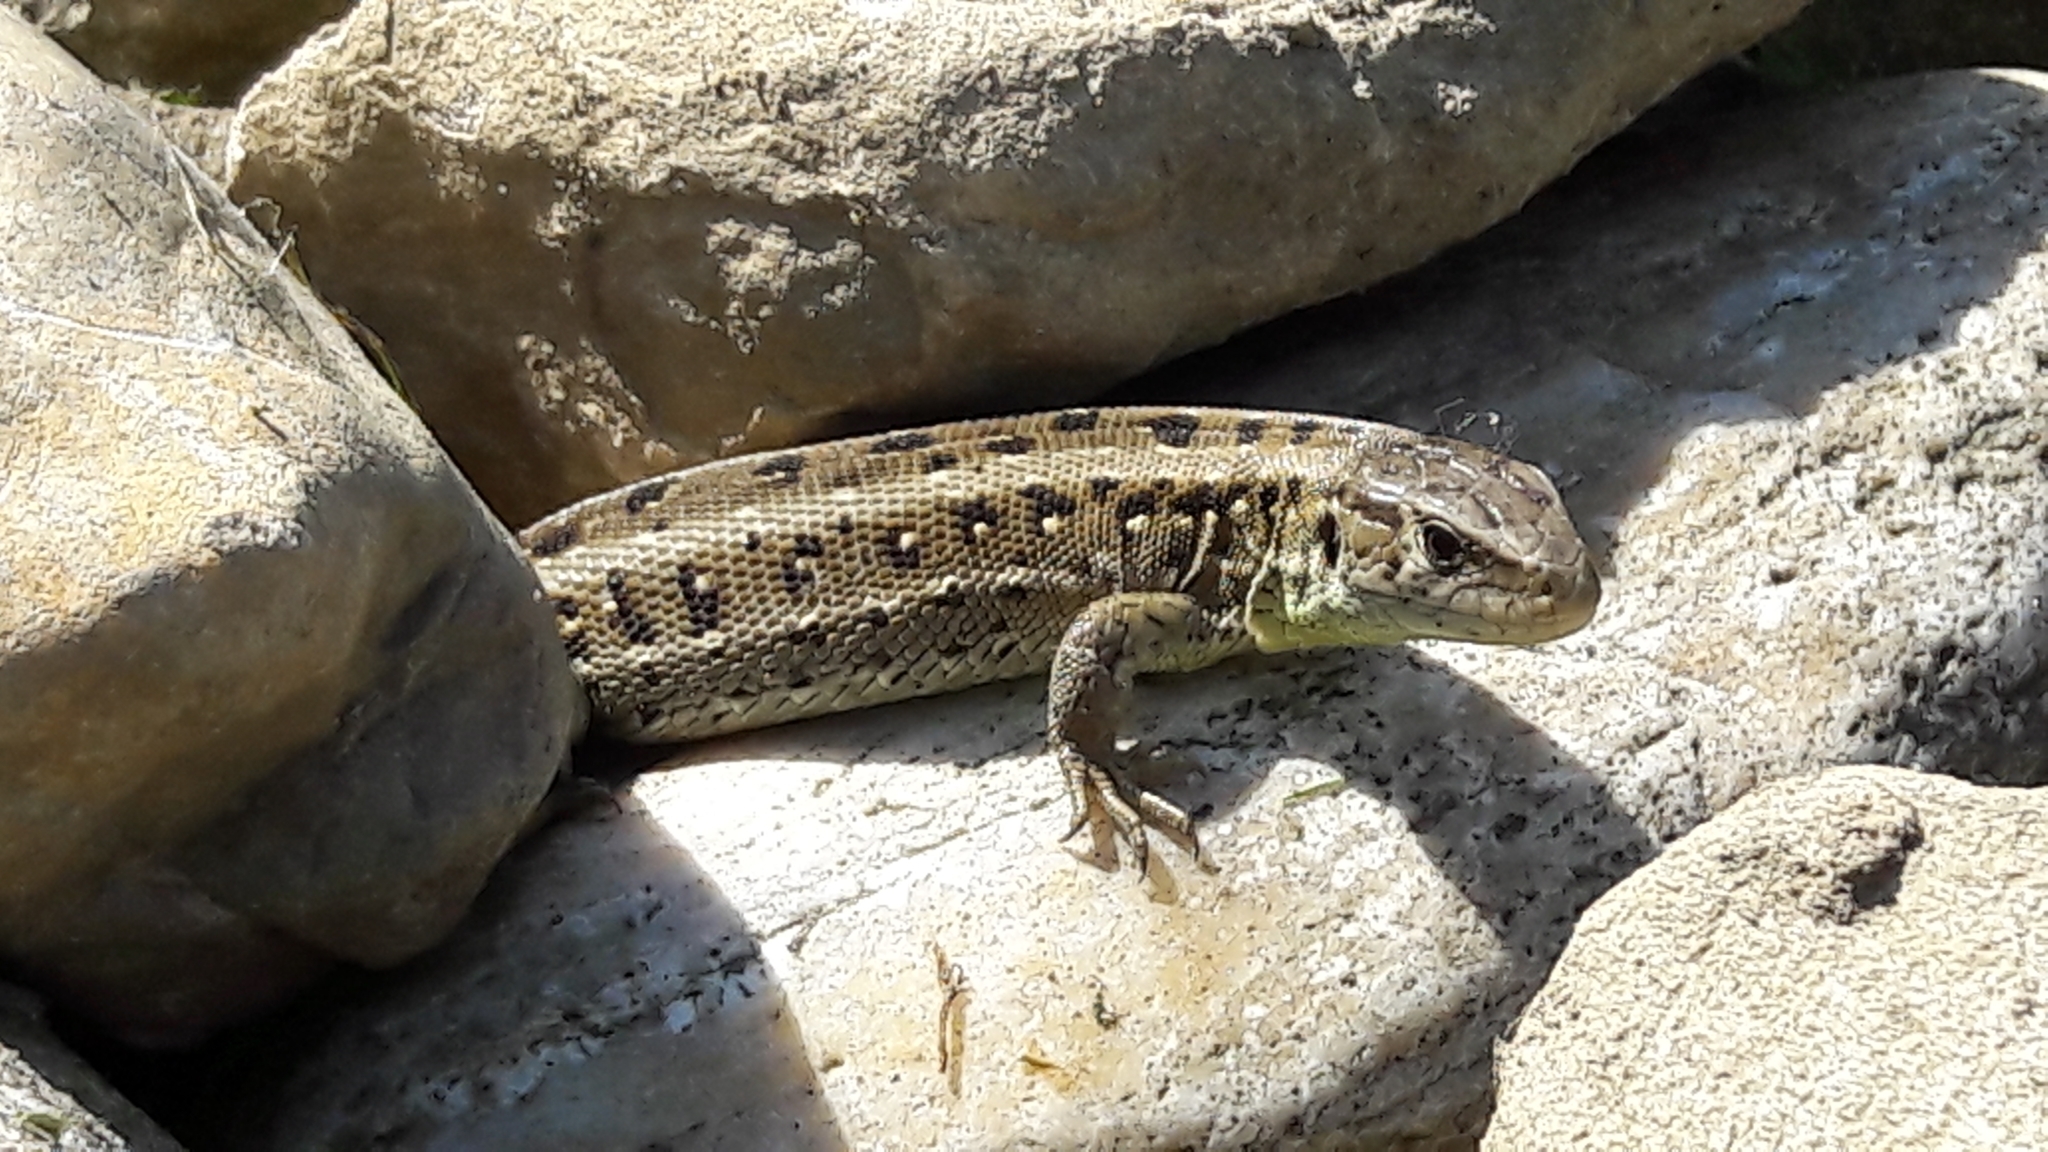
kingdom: Animalia
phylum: Chordata
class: Squamata
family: Lacertidae
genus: Lacerta
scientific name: Lacerta agilis
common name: Sand lizard
